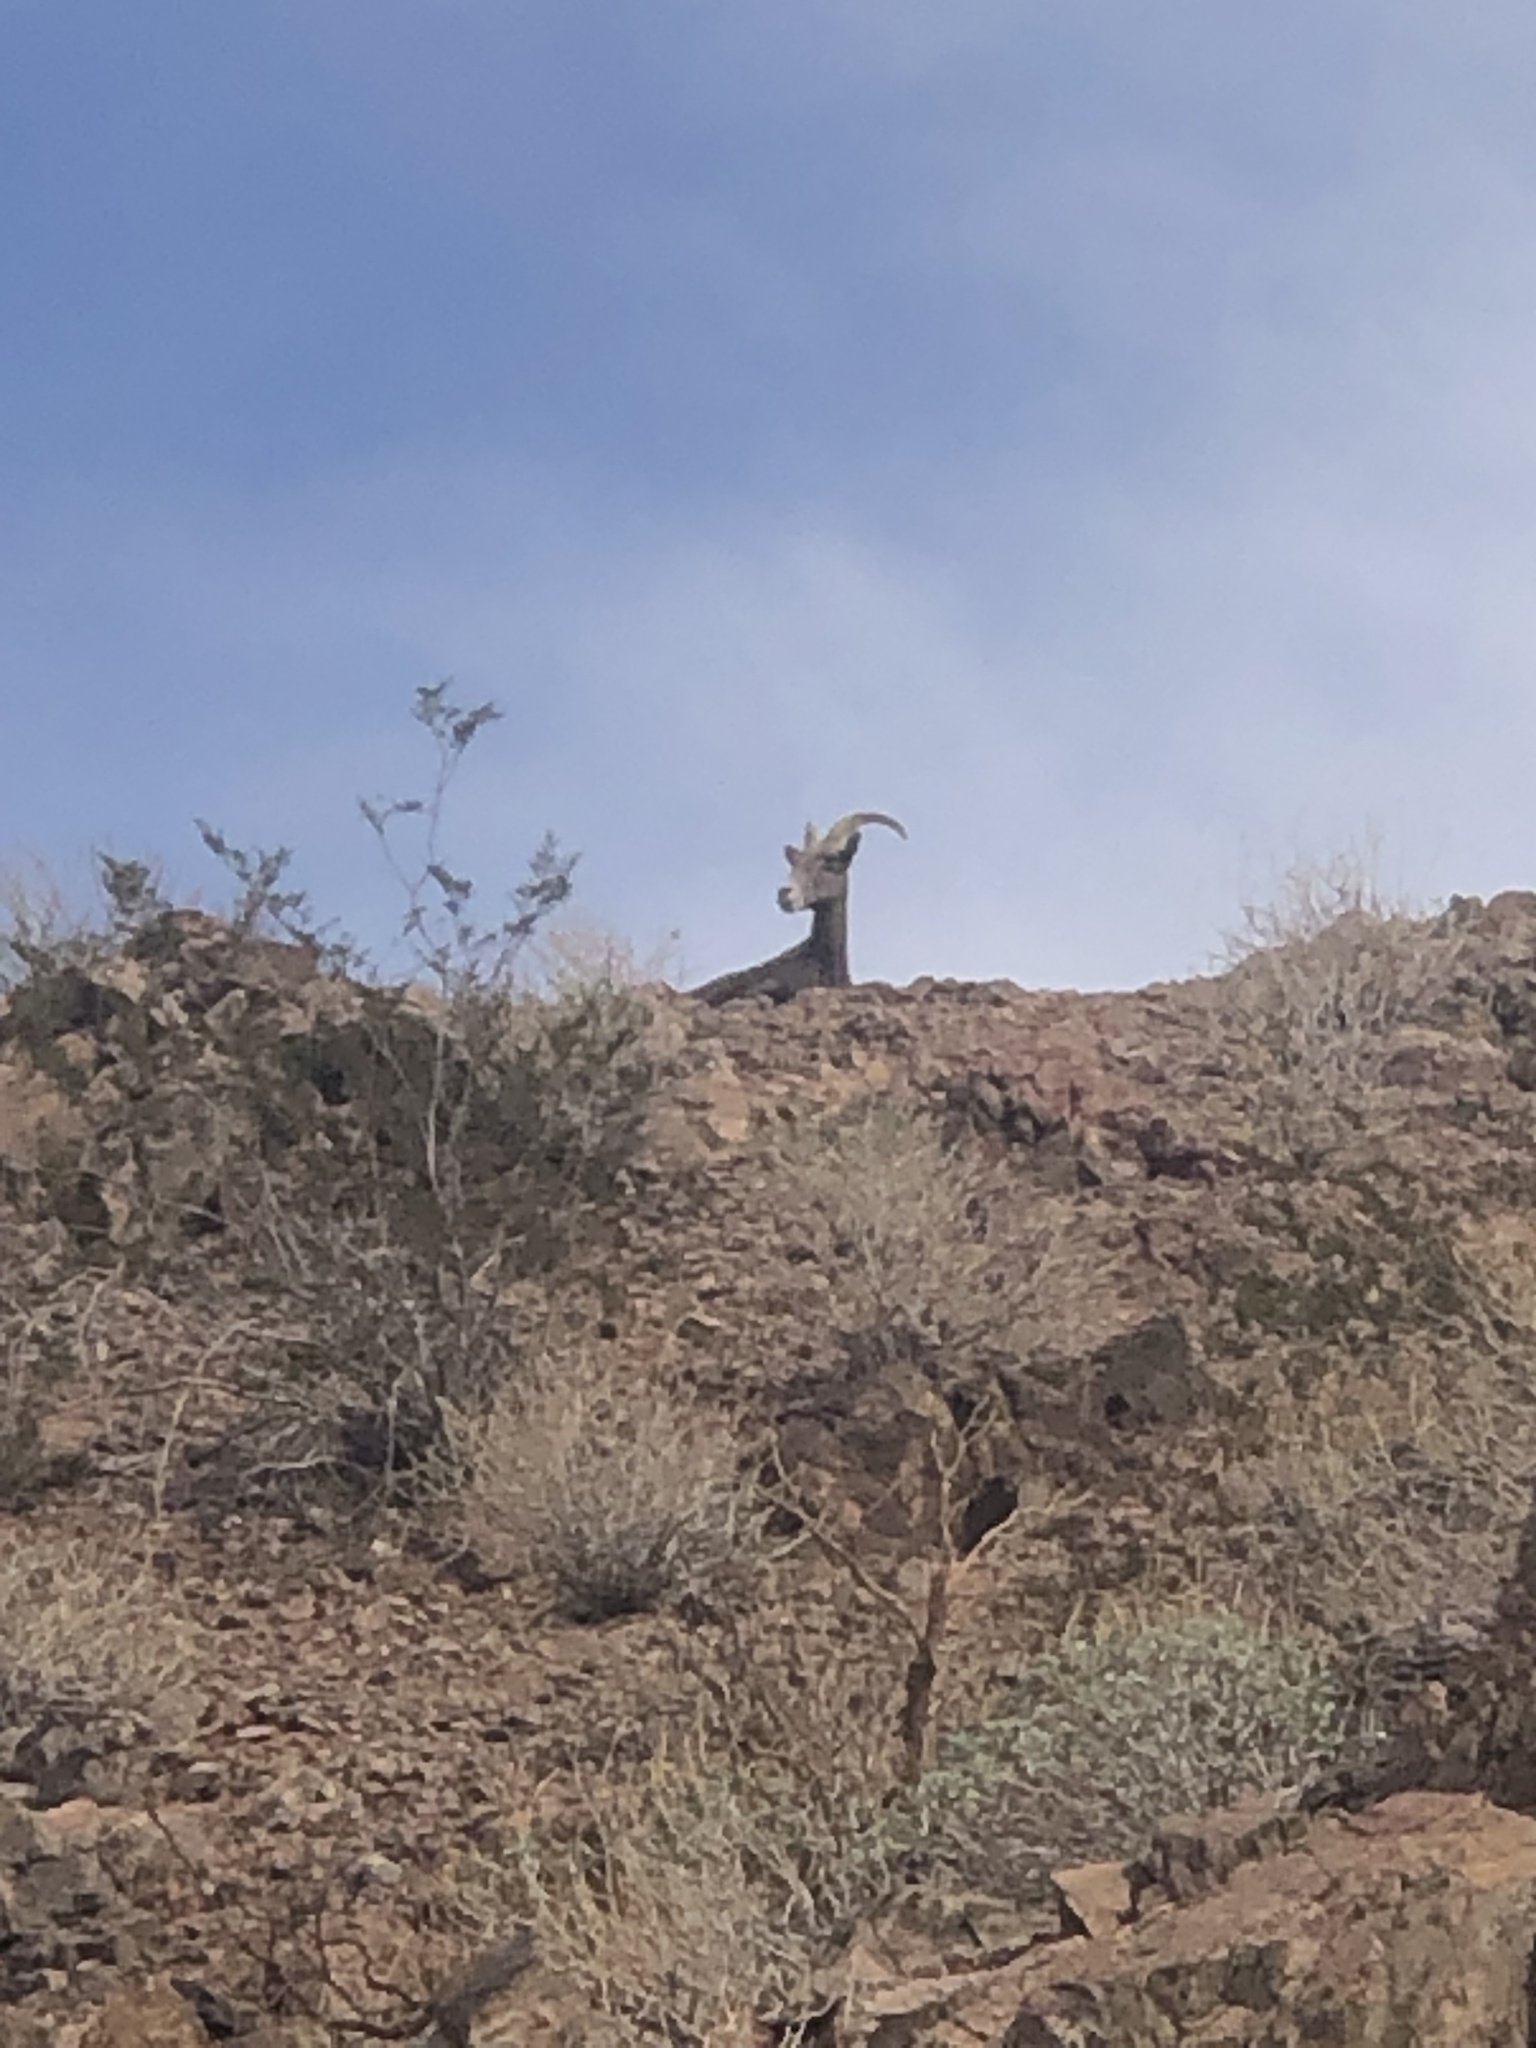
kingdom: Animalia
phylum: Chordata
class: Mammalia
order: Artiodactyla
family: Bovidae
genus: Ovis
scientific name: Ovis canadensis
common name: Bighorn sheep
